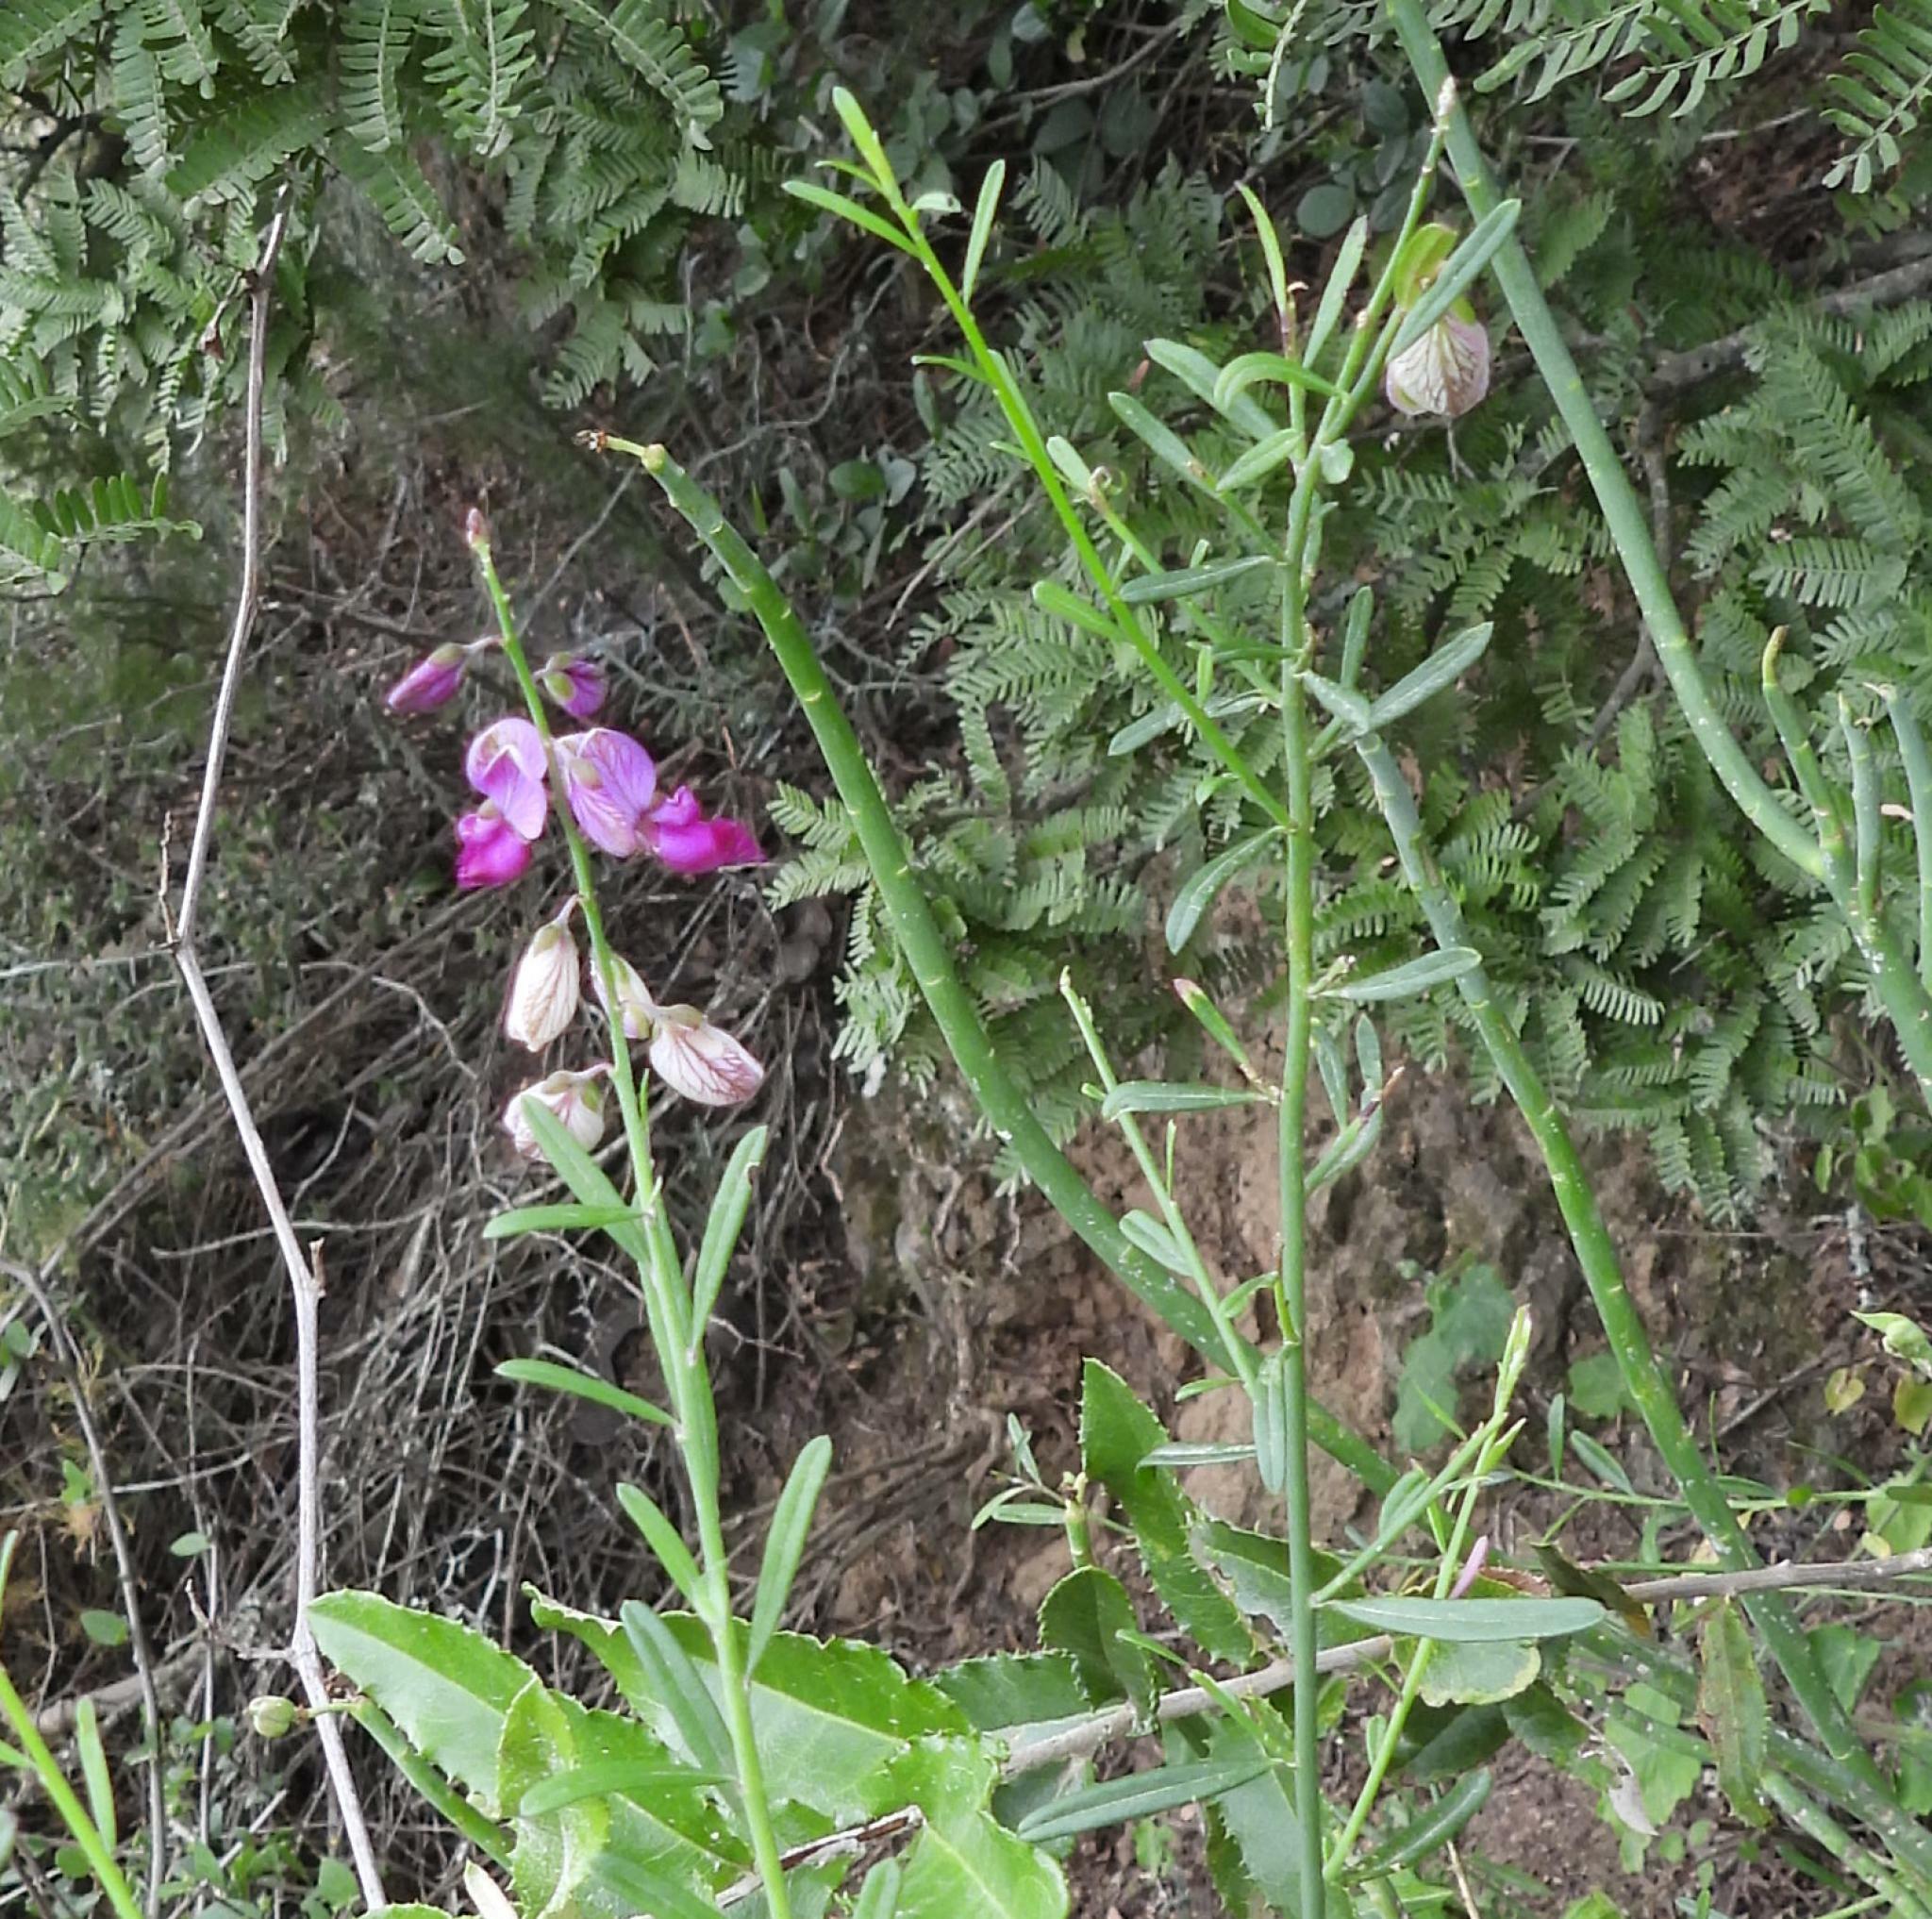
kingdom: Plantae
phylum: Tracheophyta
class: Magnoliopsida
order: Fabales
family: Polygalaceae
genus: Polygala
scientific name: Polygala virgata
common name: Milkwort
